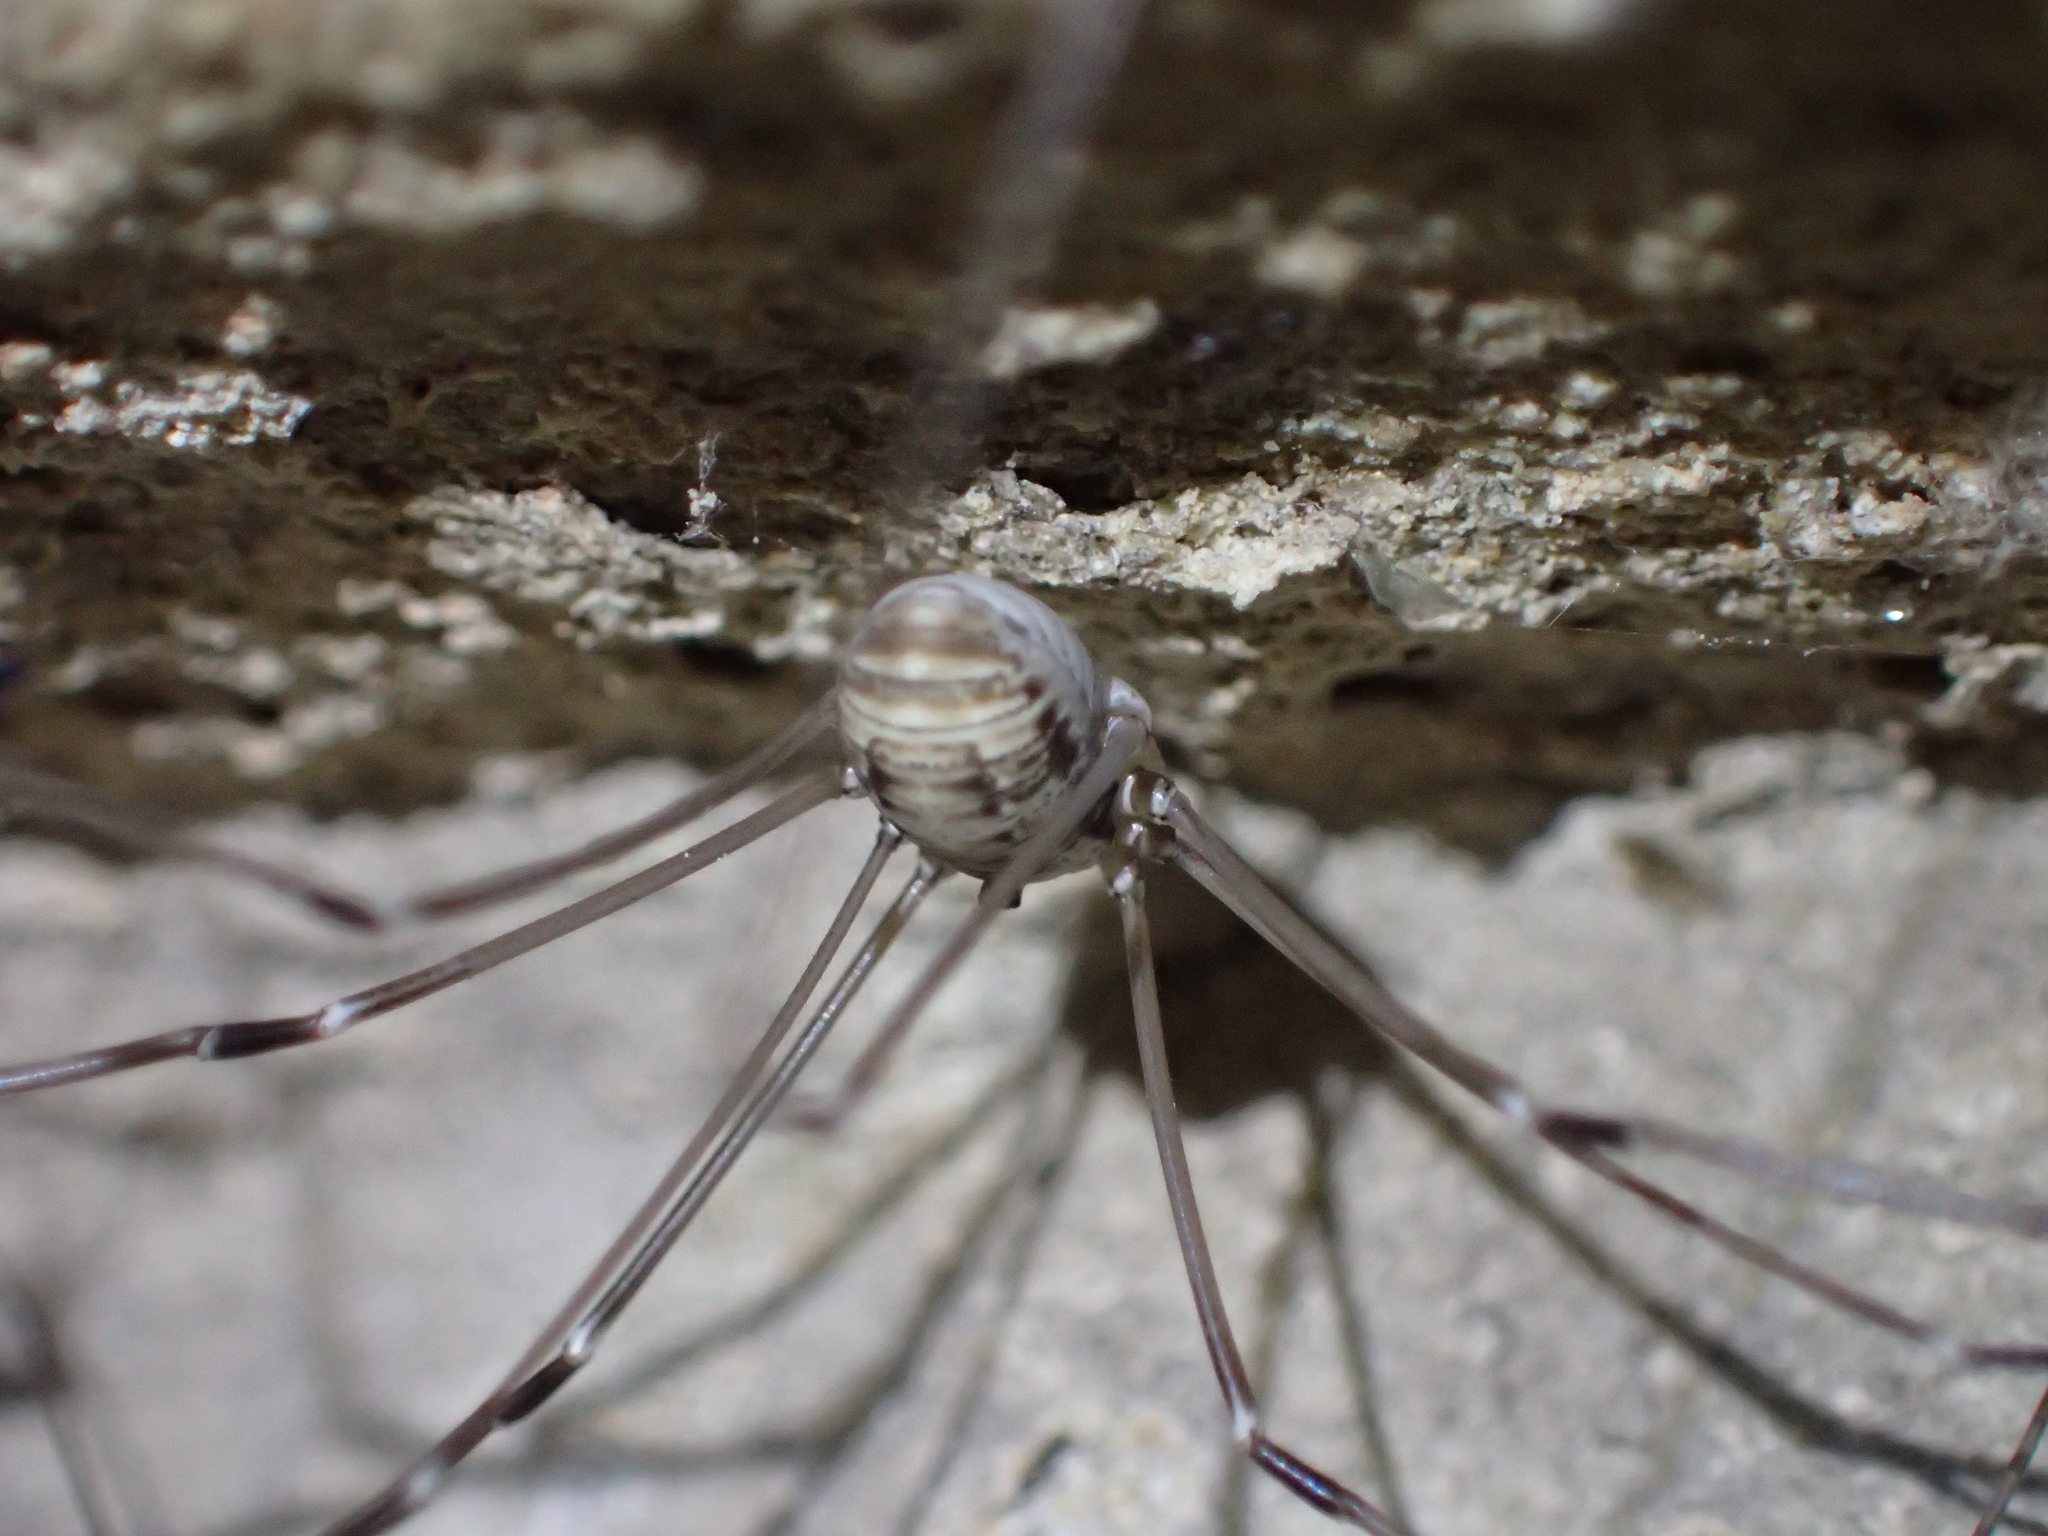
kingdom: Animalia
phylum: Arthropoda
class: Arachnida
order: Opiliones
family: Sclerosomatidae
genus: Leiobunum
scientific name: Leiobunum limbatum
